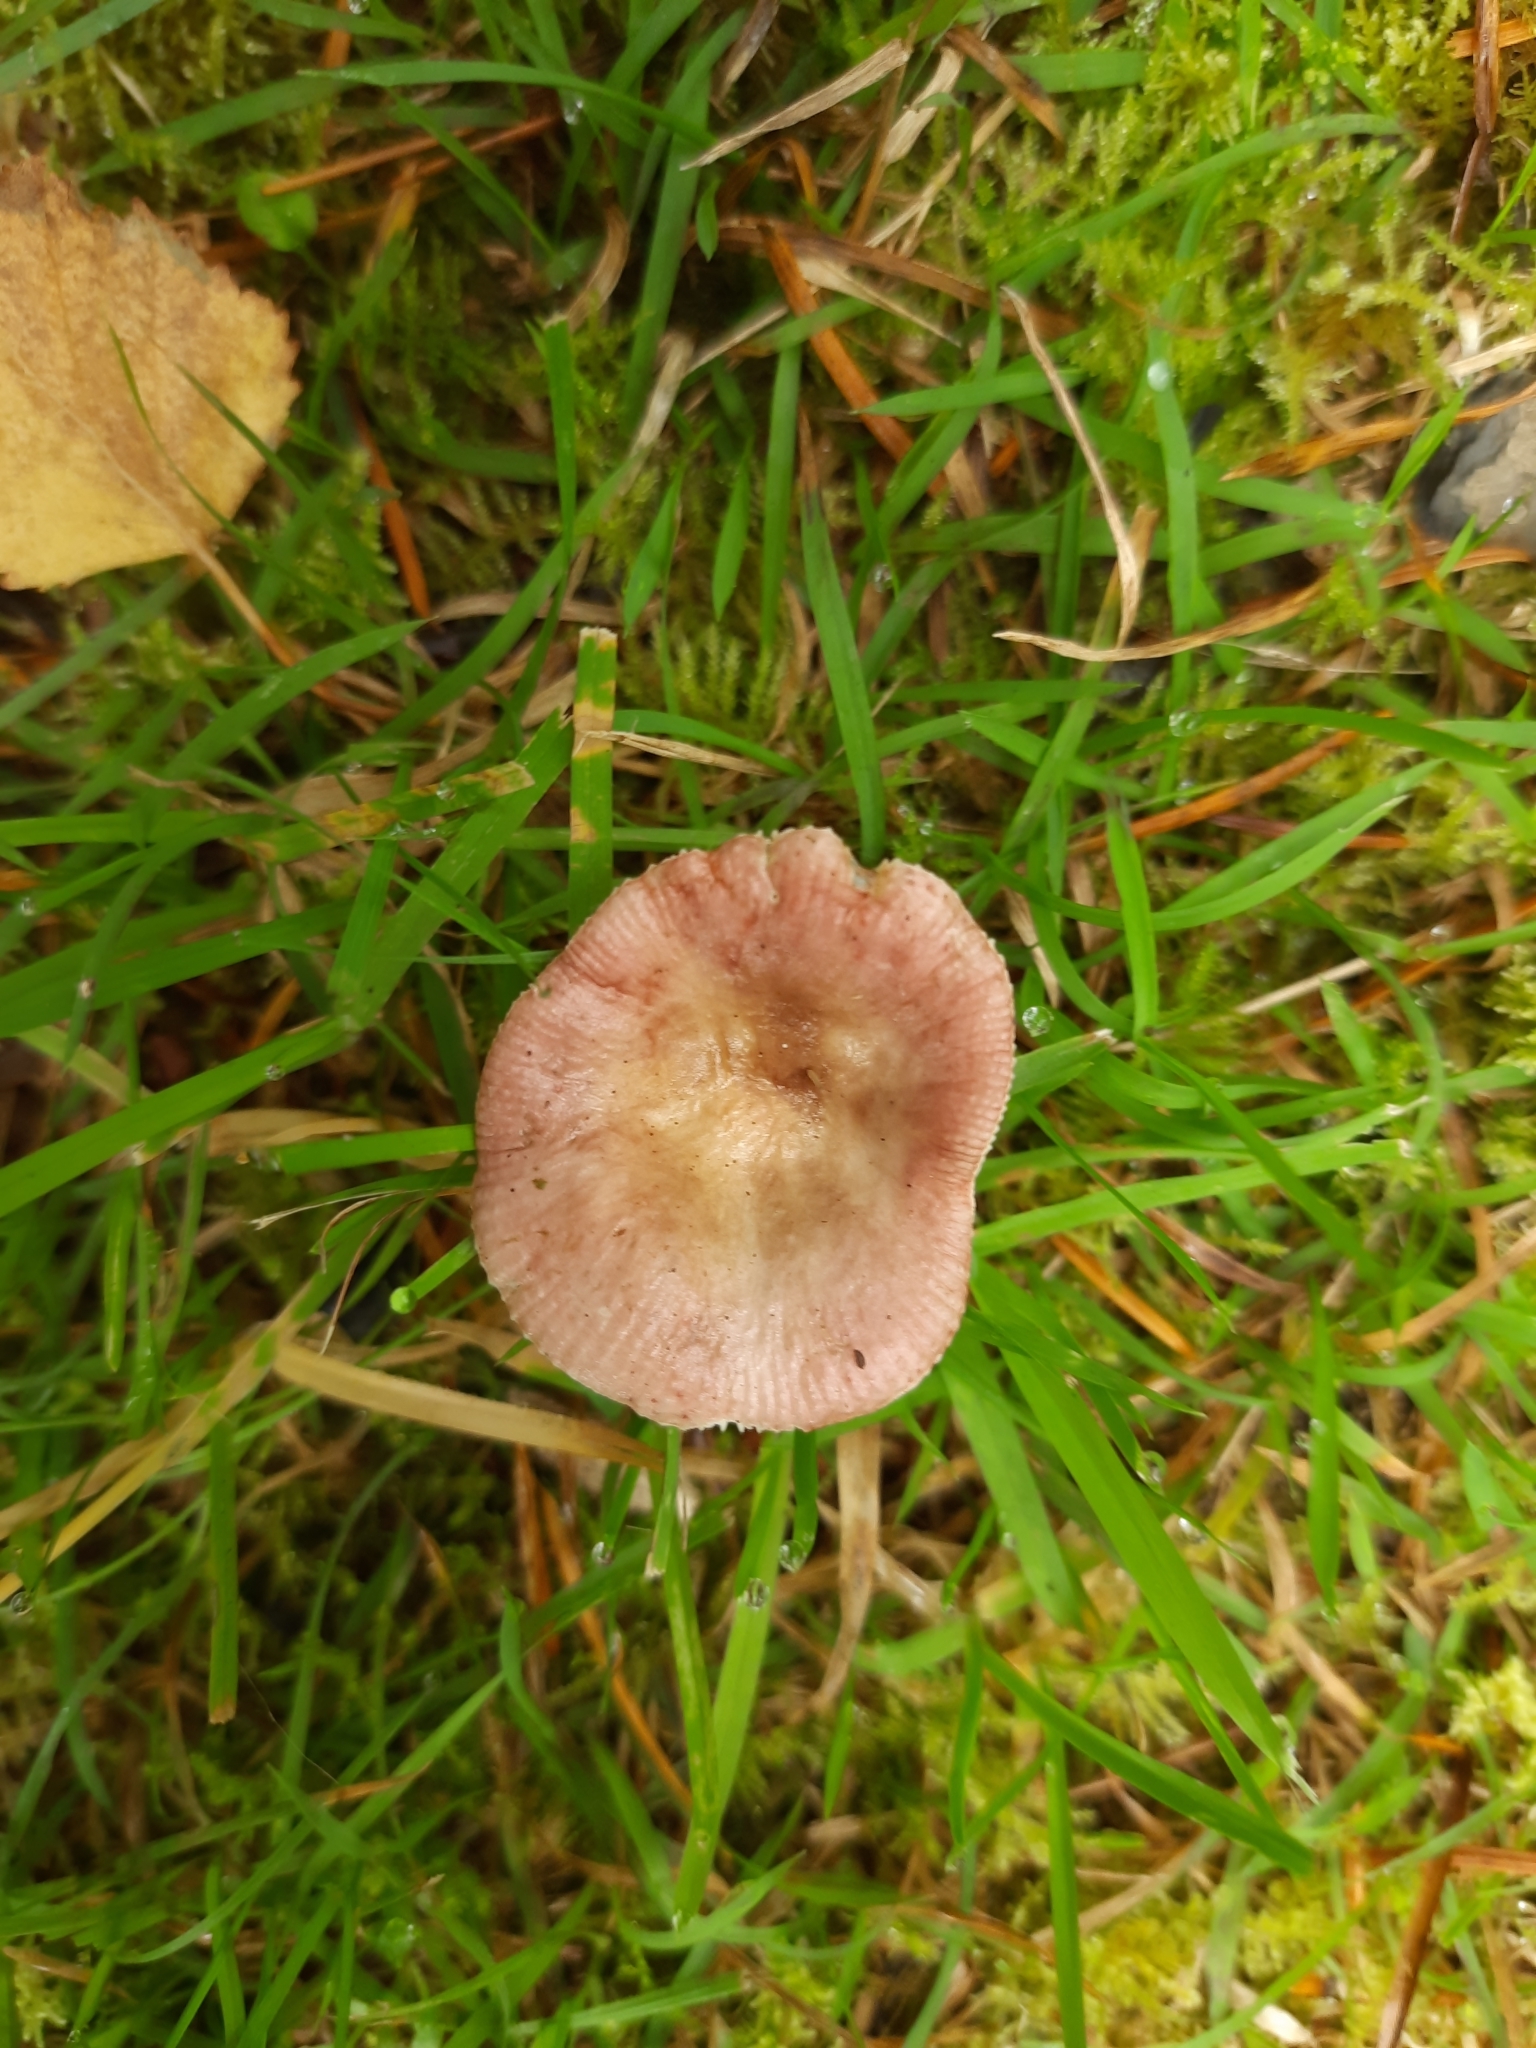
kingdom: Fungi
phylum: Basidiomycota
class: Agaricomycetes
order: Russulales
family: Russulaceae
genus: Russula
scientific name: Russula nitida
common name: Purple swamp brittlegill
